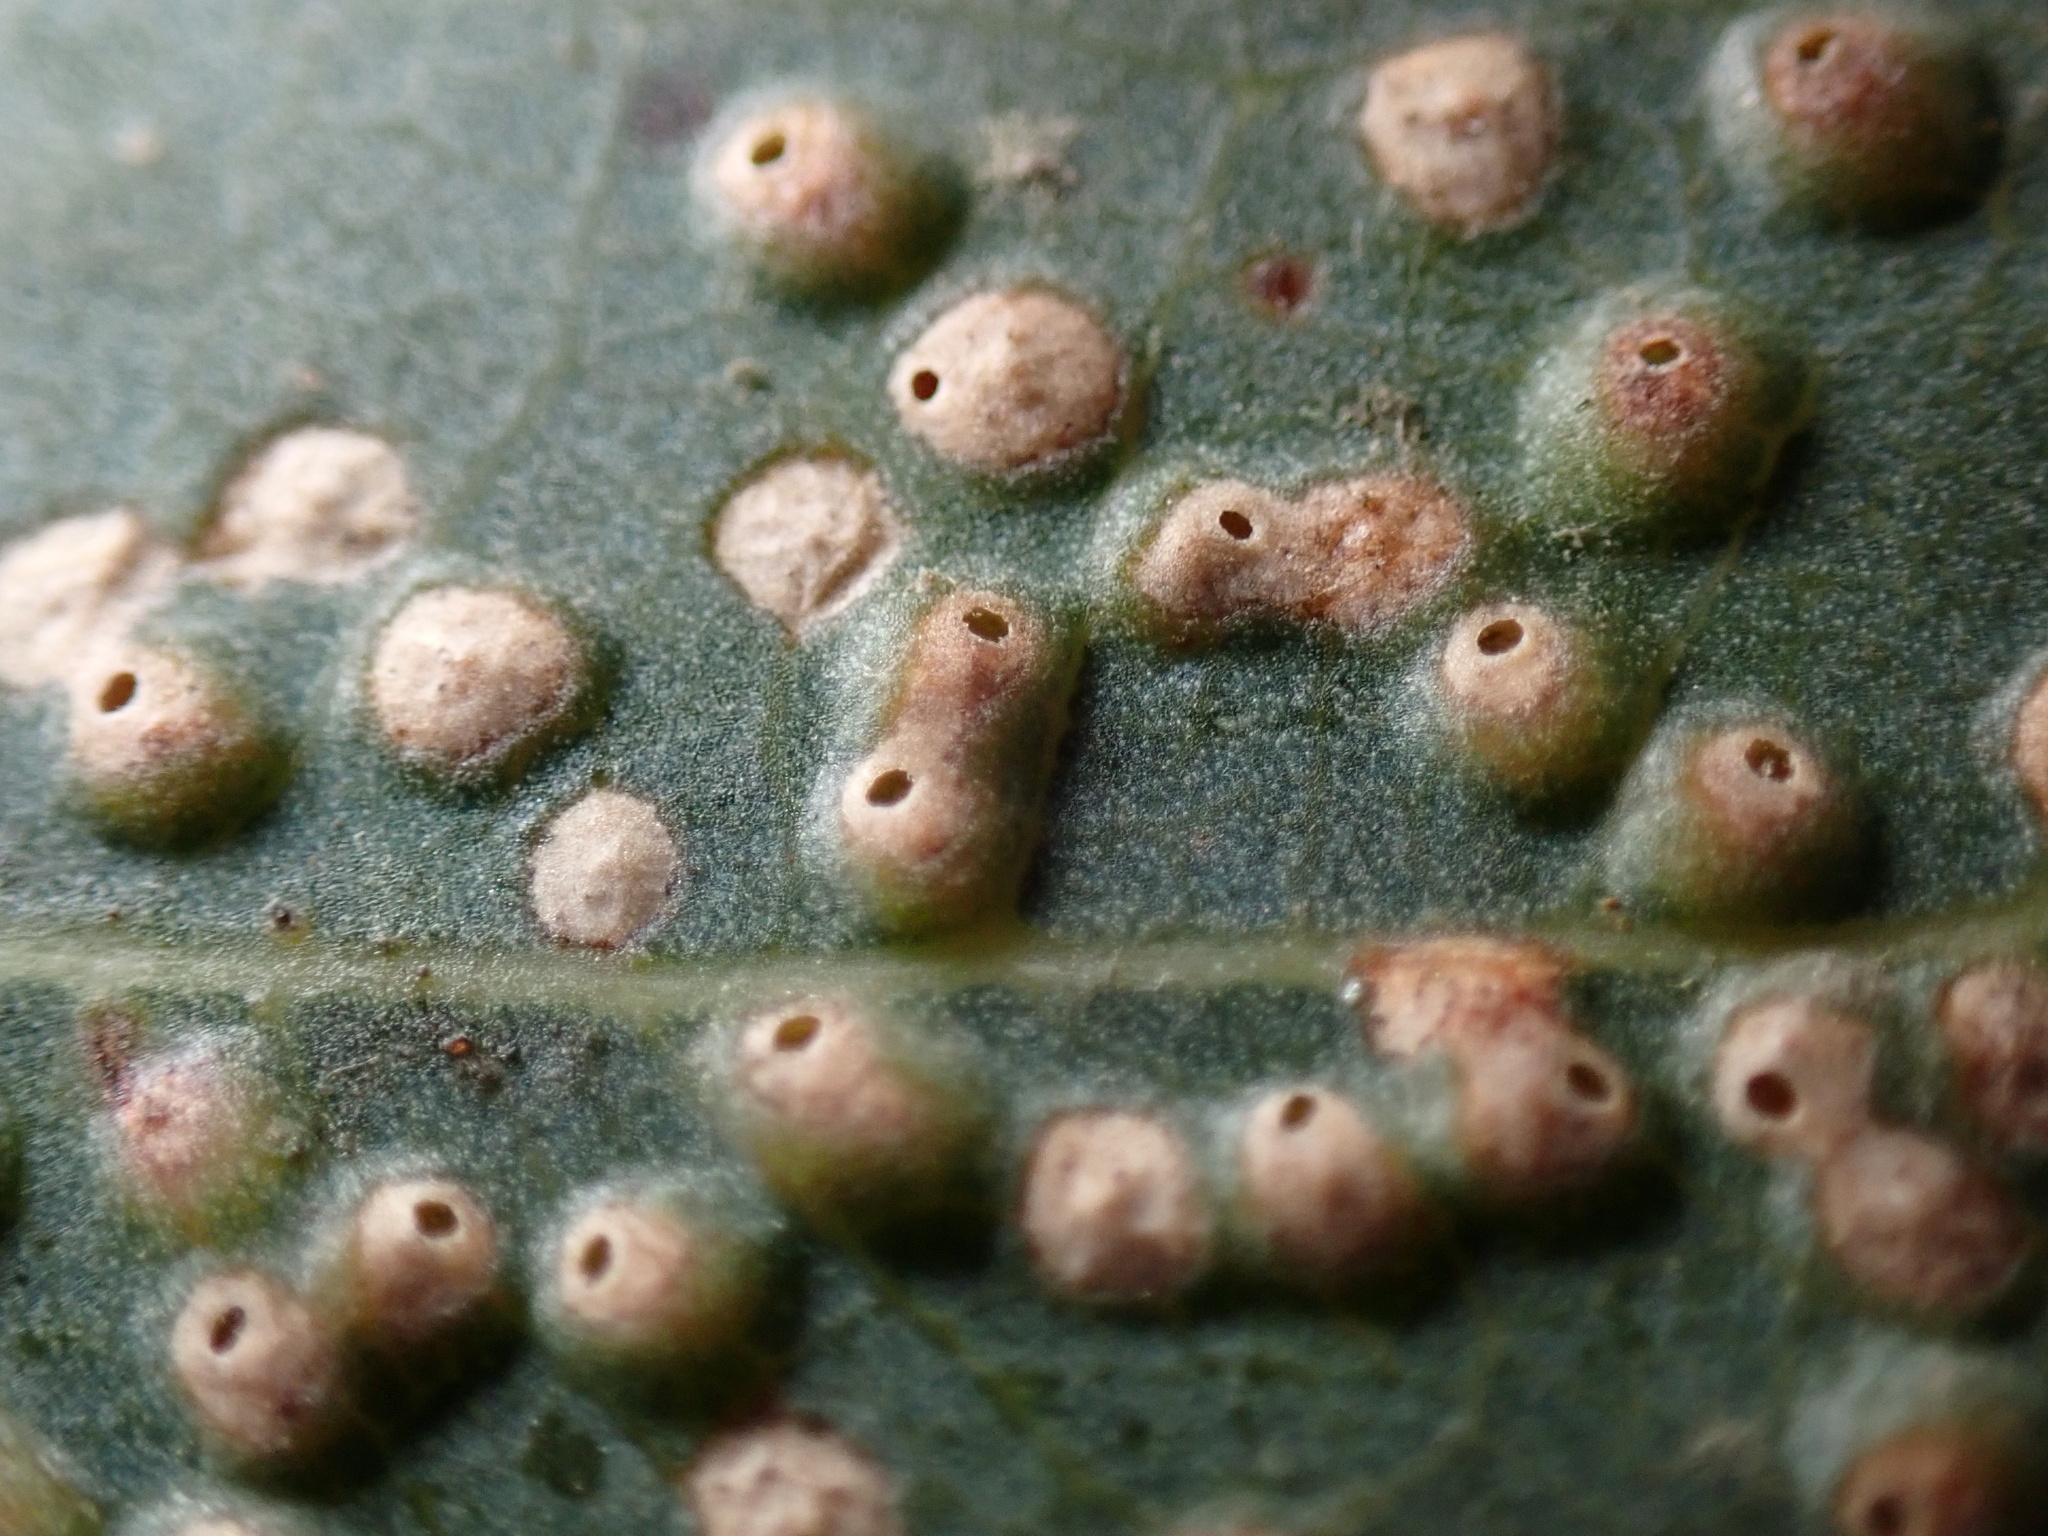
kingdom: Animalia
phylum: Arthropoda
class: Insecta
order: Hymenoptera
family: Eulophidae
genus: Ophelimus
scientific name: Ophelimus maskelli
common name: Gall wasp
